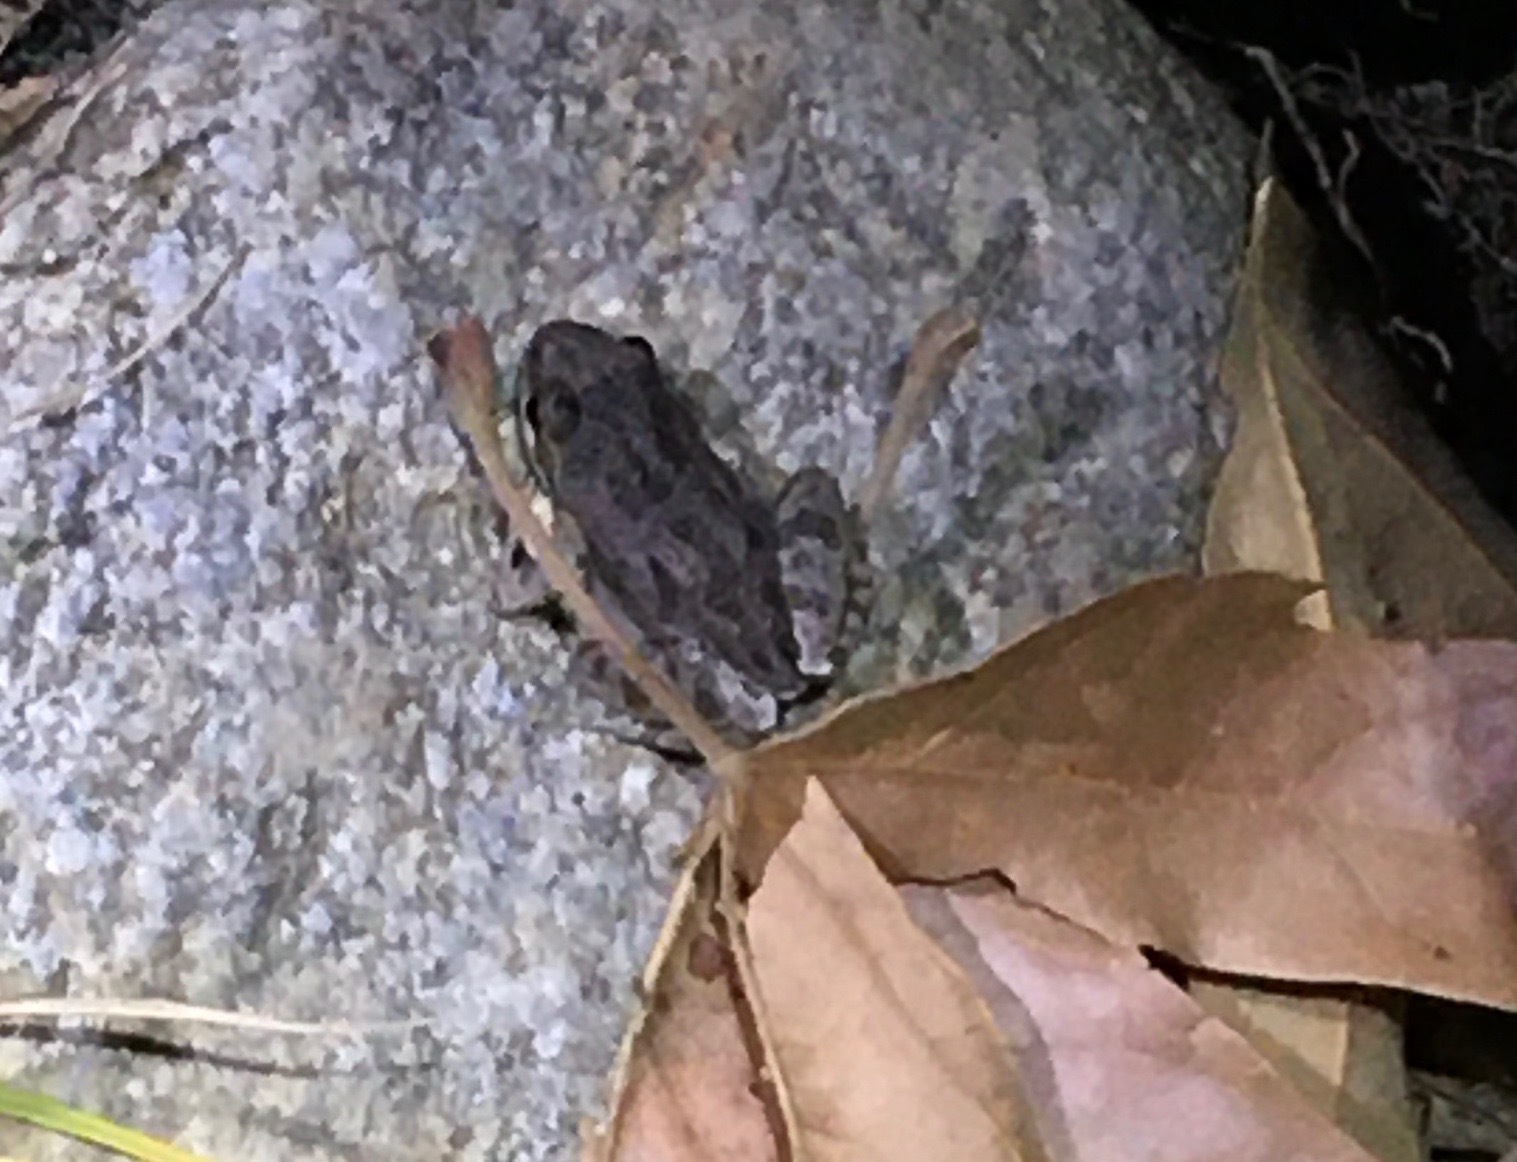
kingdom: Animalia
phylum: Chordata
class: Amphibia
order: Anura
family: Hylidae
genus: Pseudacris
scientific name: Pseudacris regilla
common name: Pacific chorus frog
